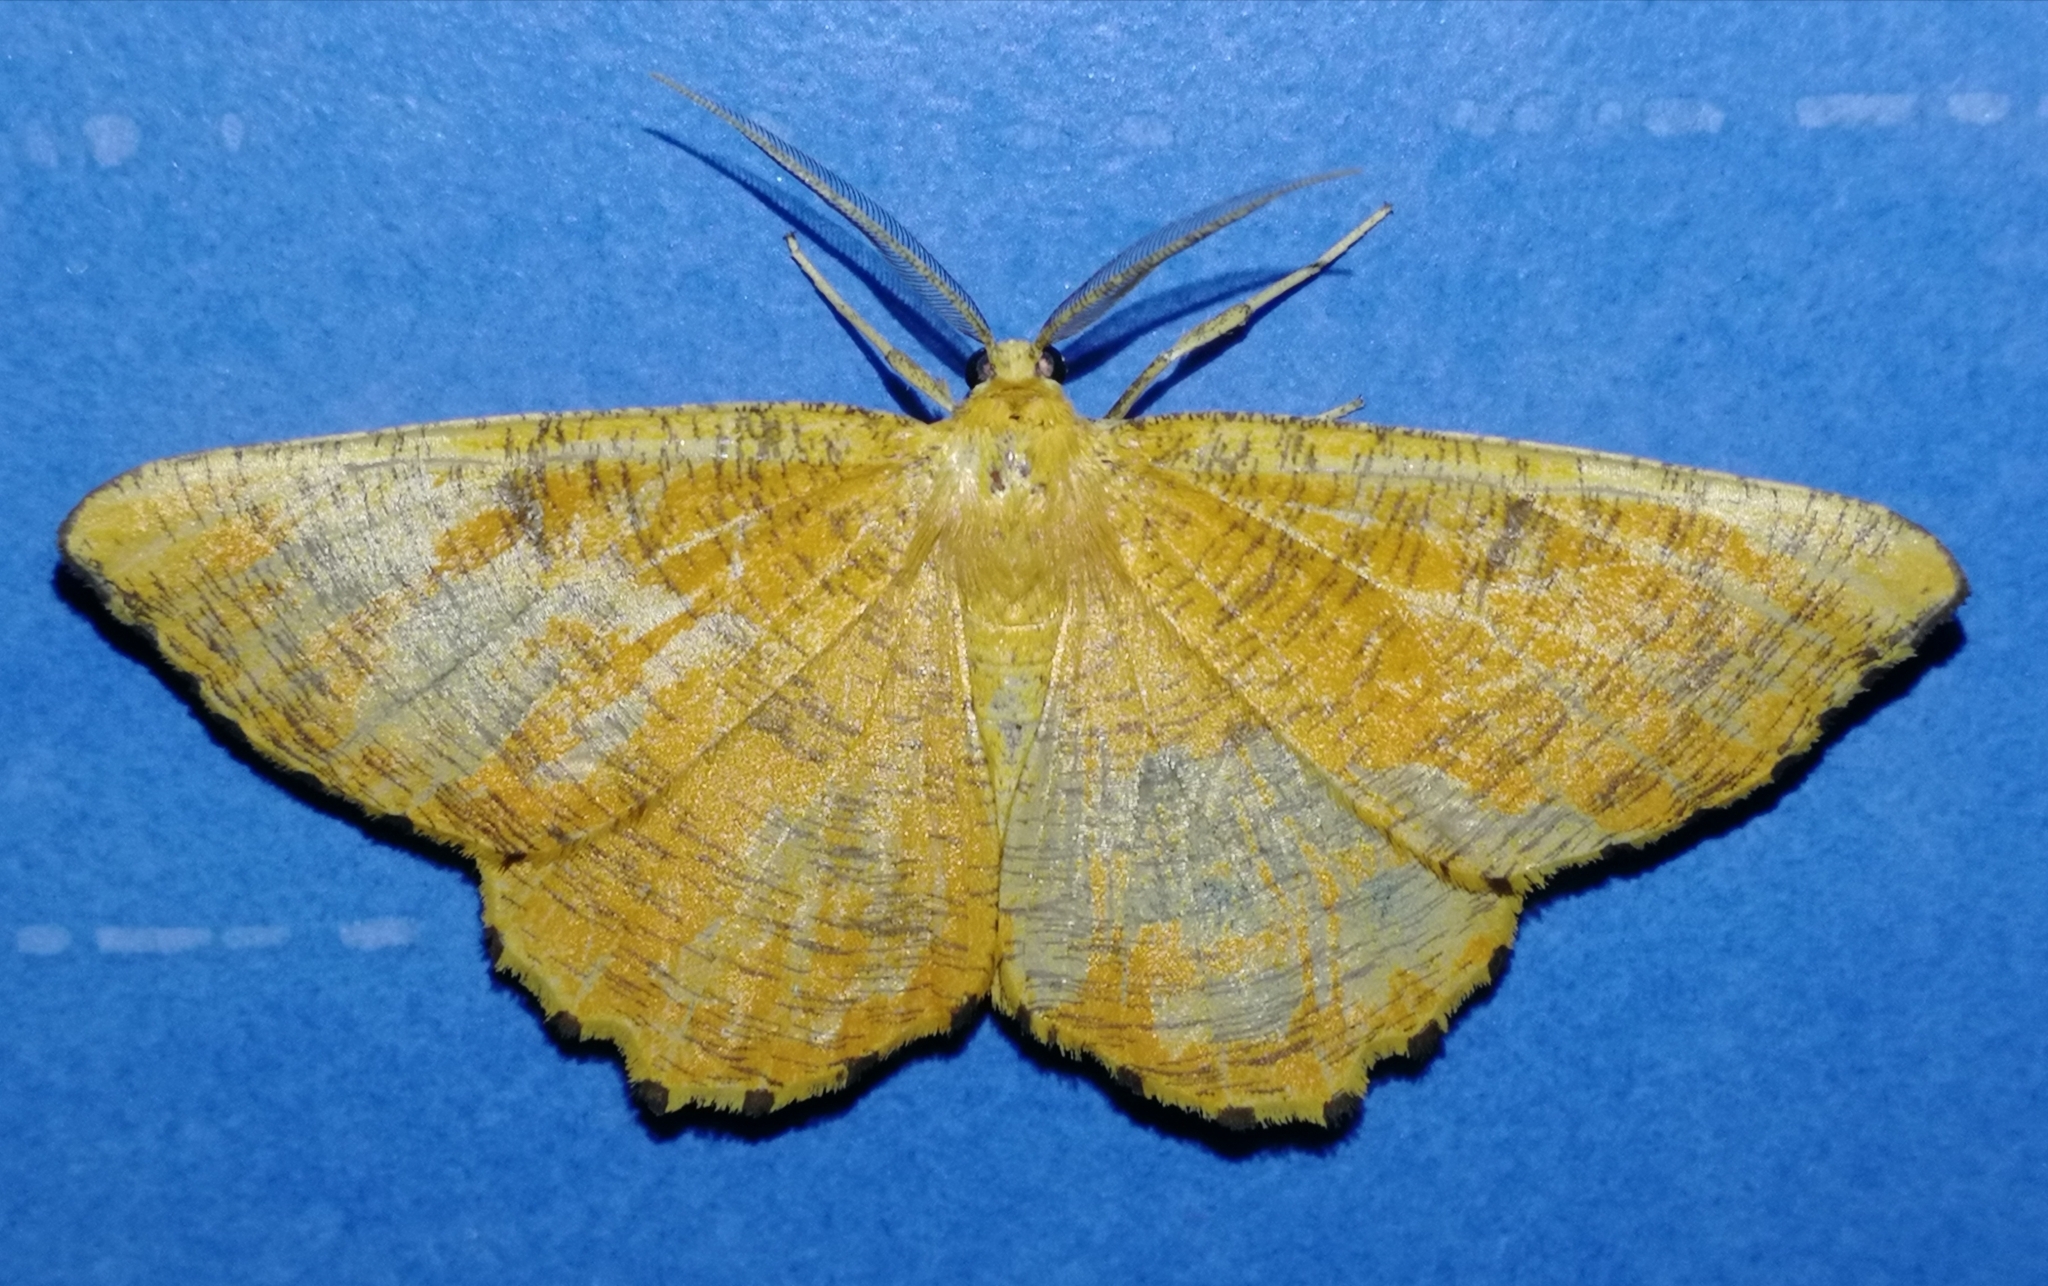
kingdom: Animalia
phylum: Arthropoda
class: Insecta
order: Lepidoptera
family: Geometridae
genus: Angerona
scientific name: Angerona prunaria
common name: Orange moth
